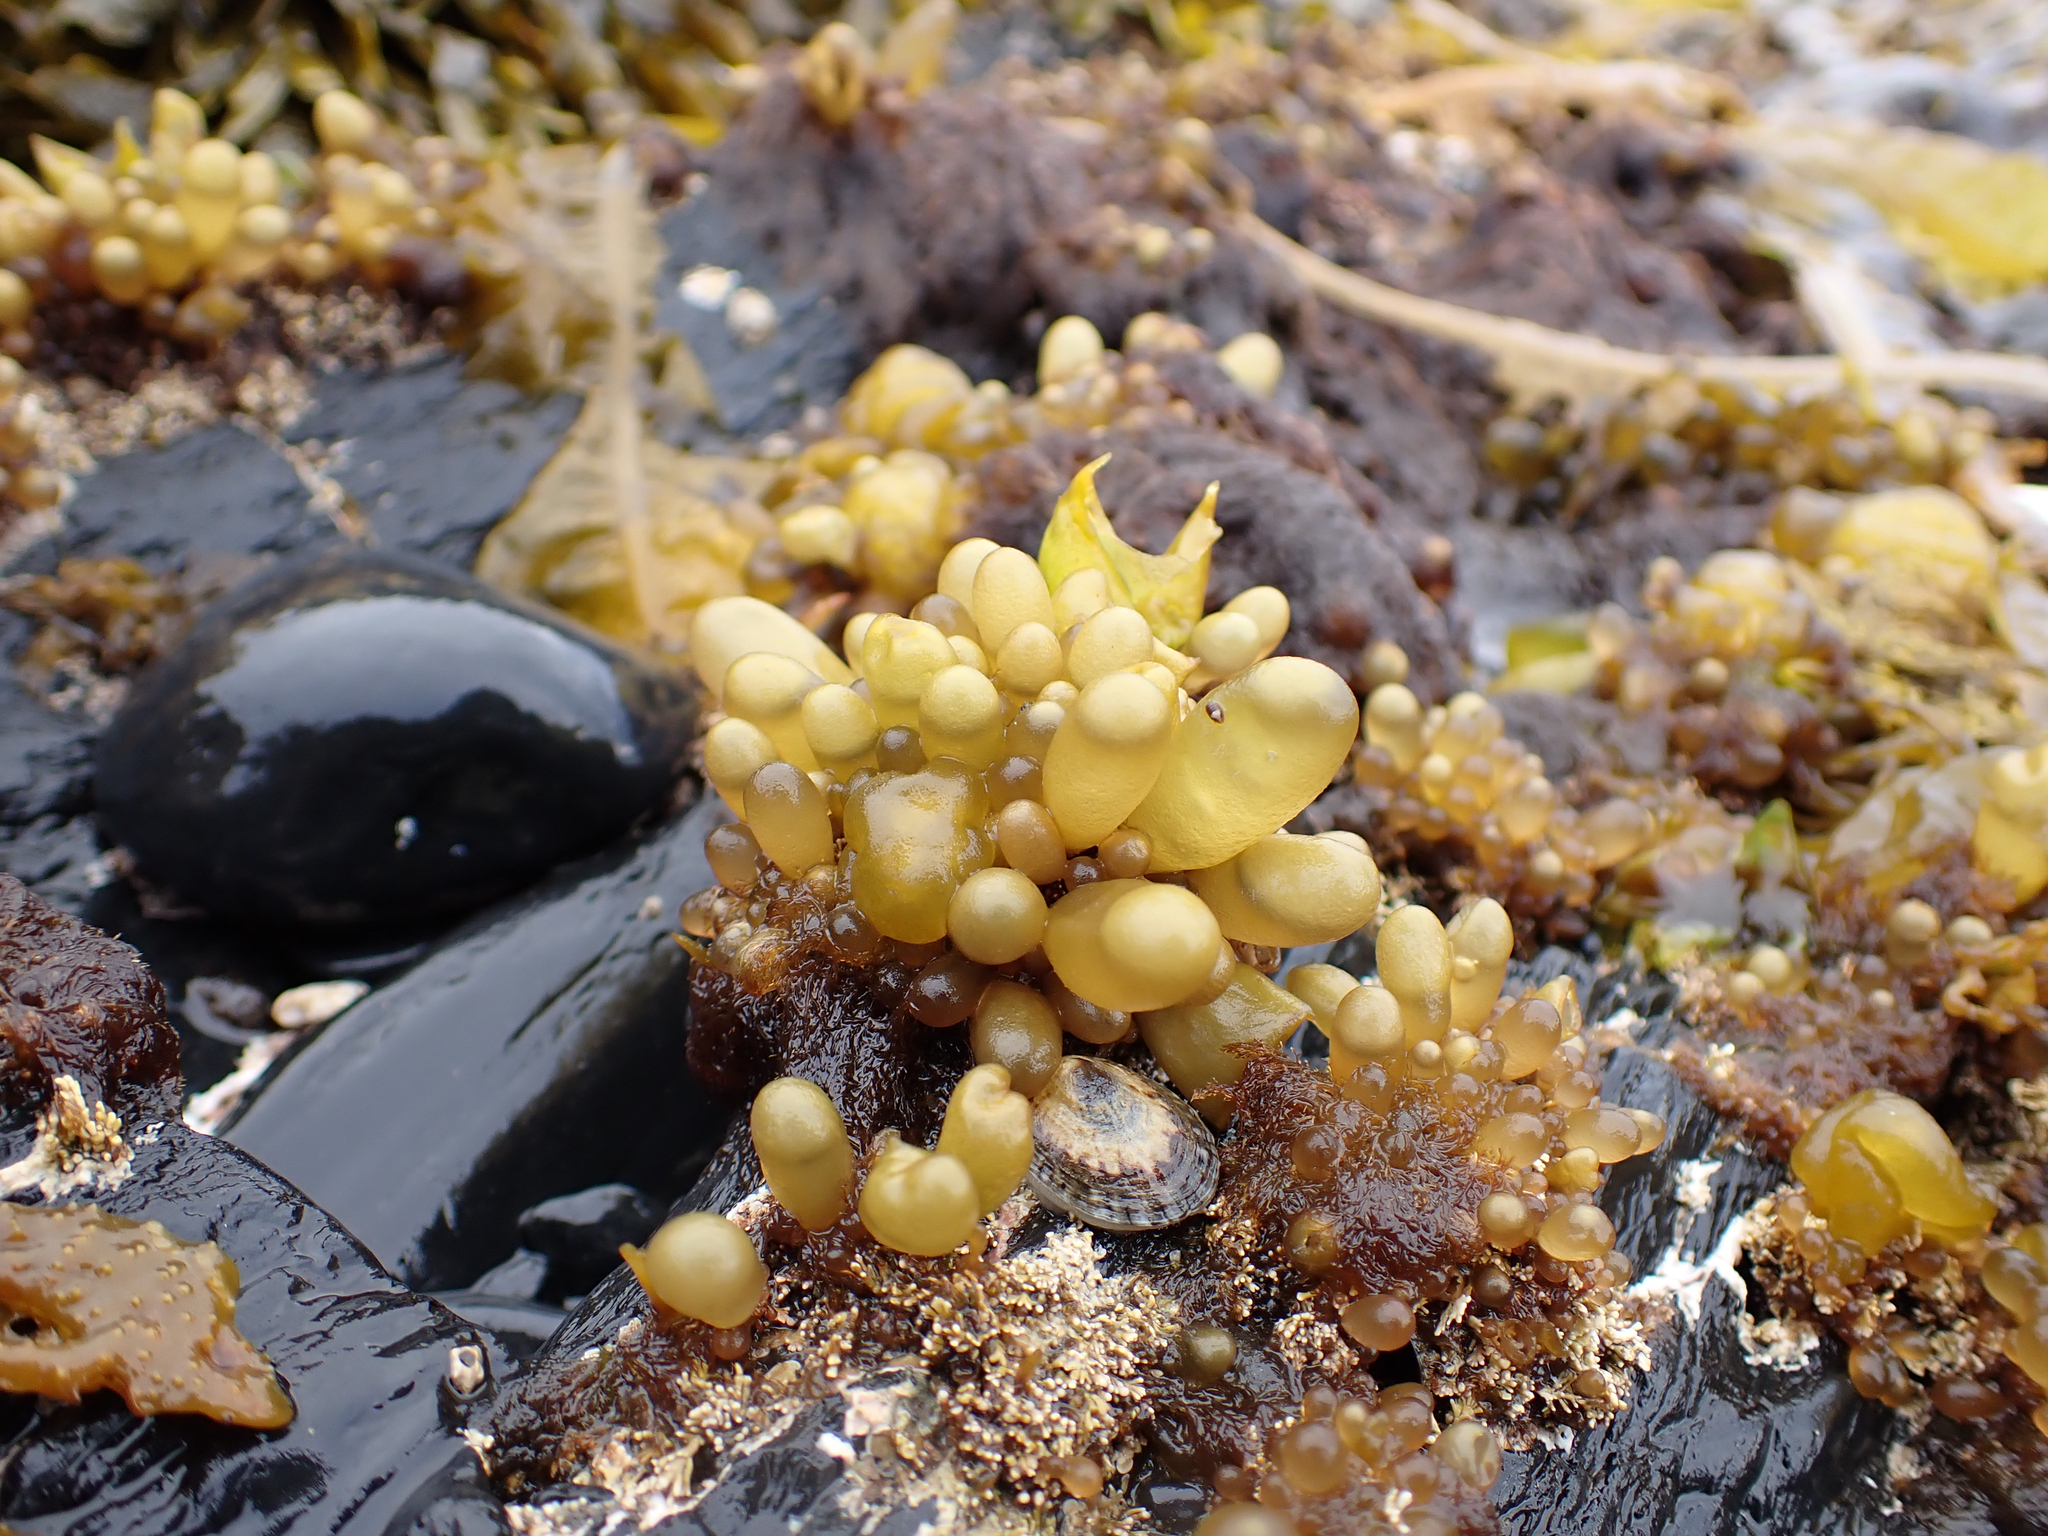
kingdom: Plantae
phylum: Rhodophyta
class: Florideophyceae
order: Palmariales
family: Palmariaceae
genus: Halosaccion
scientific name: Halosaccion glandiforme
